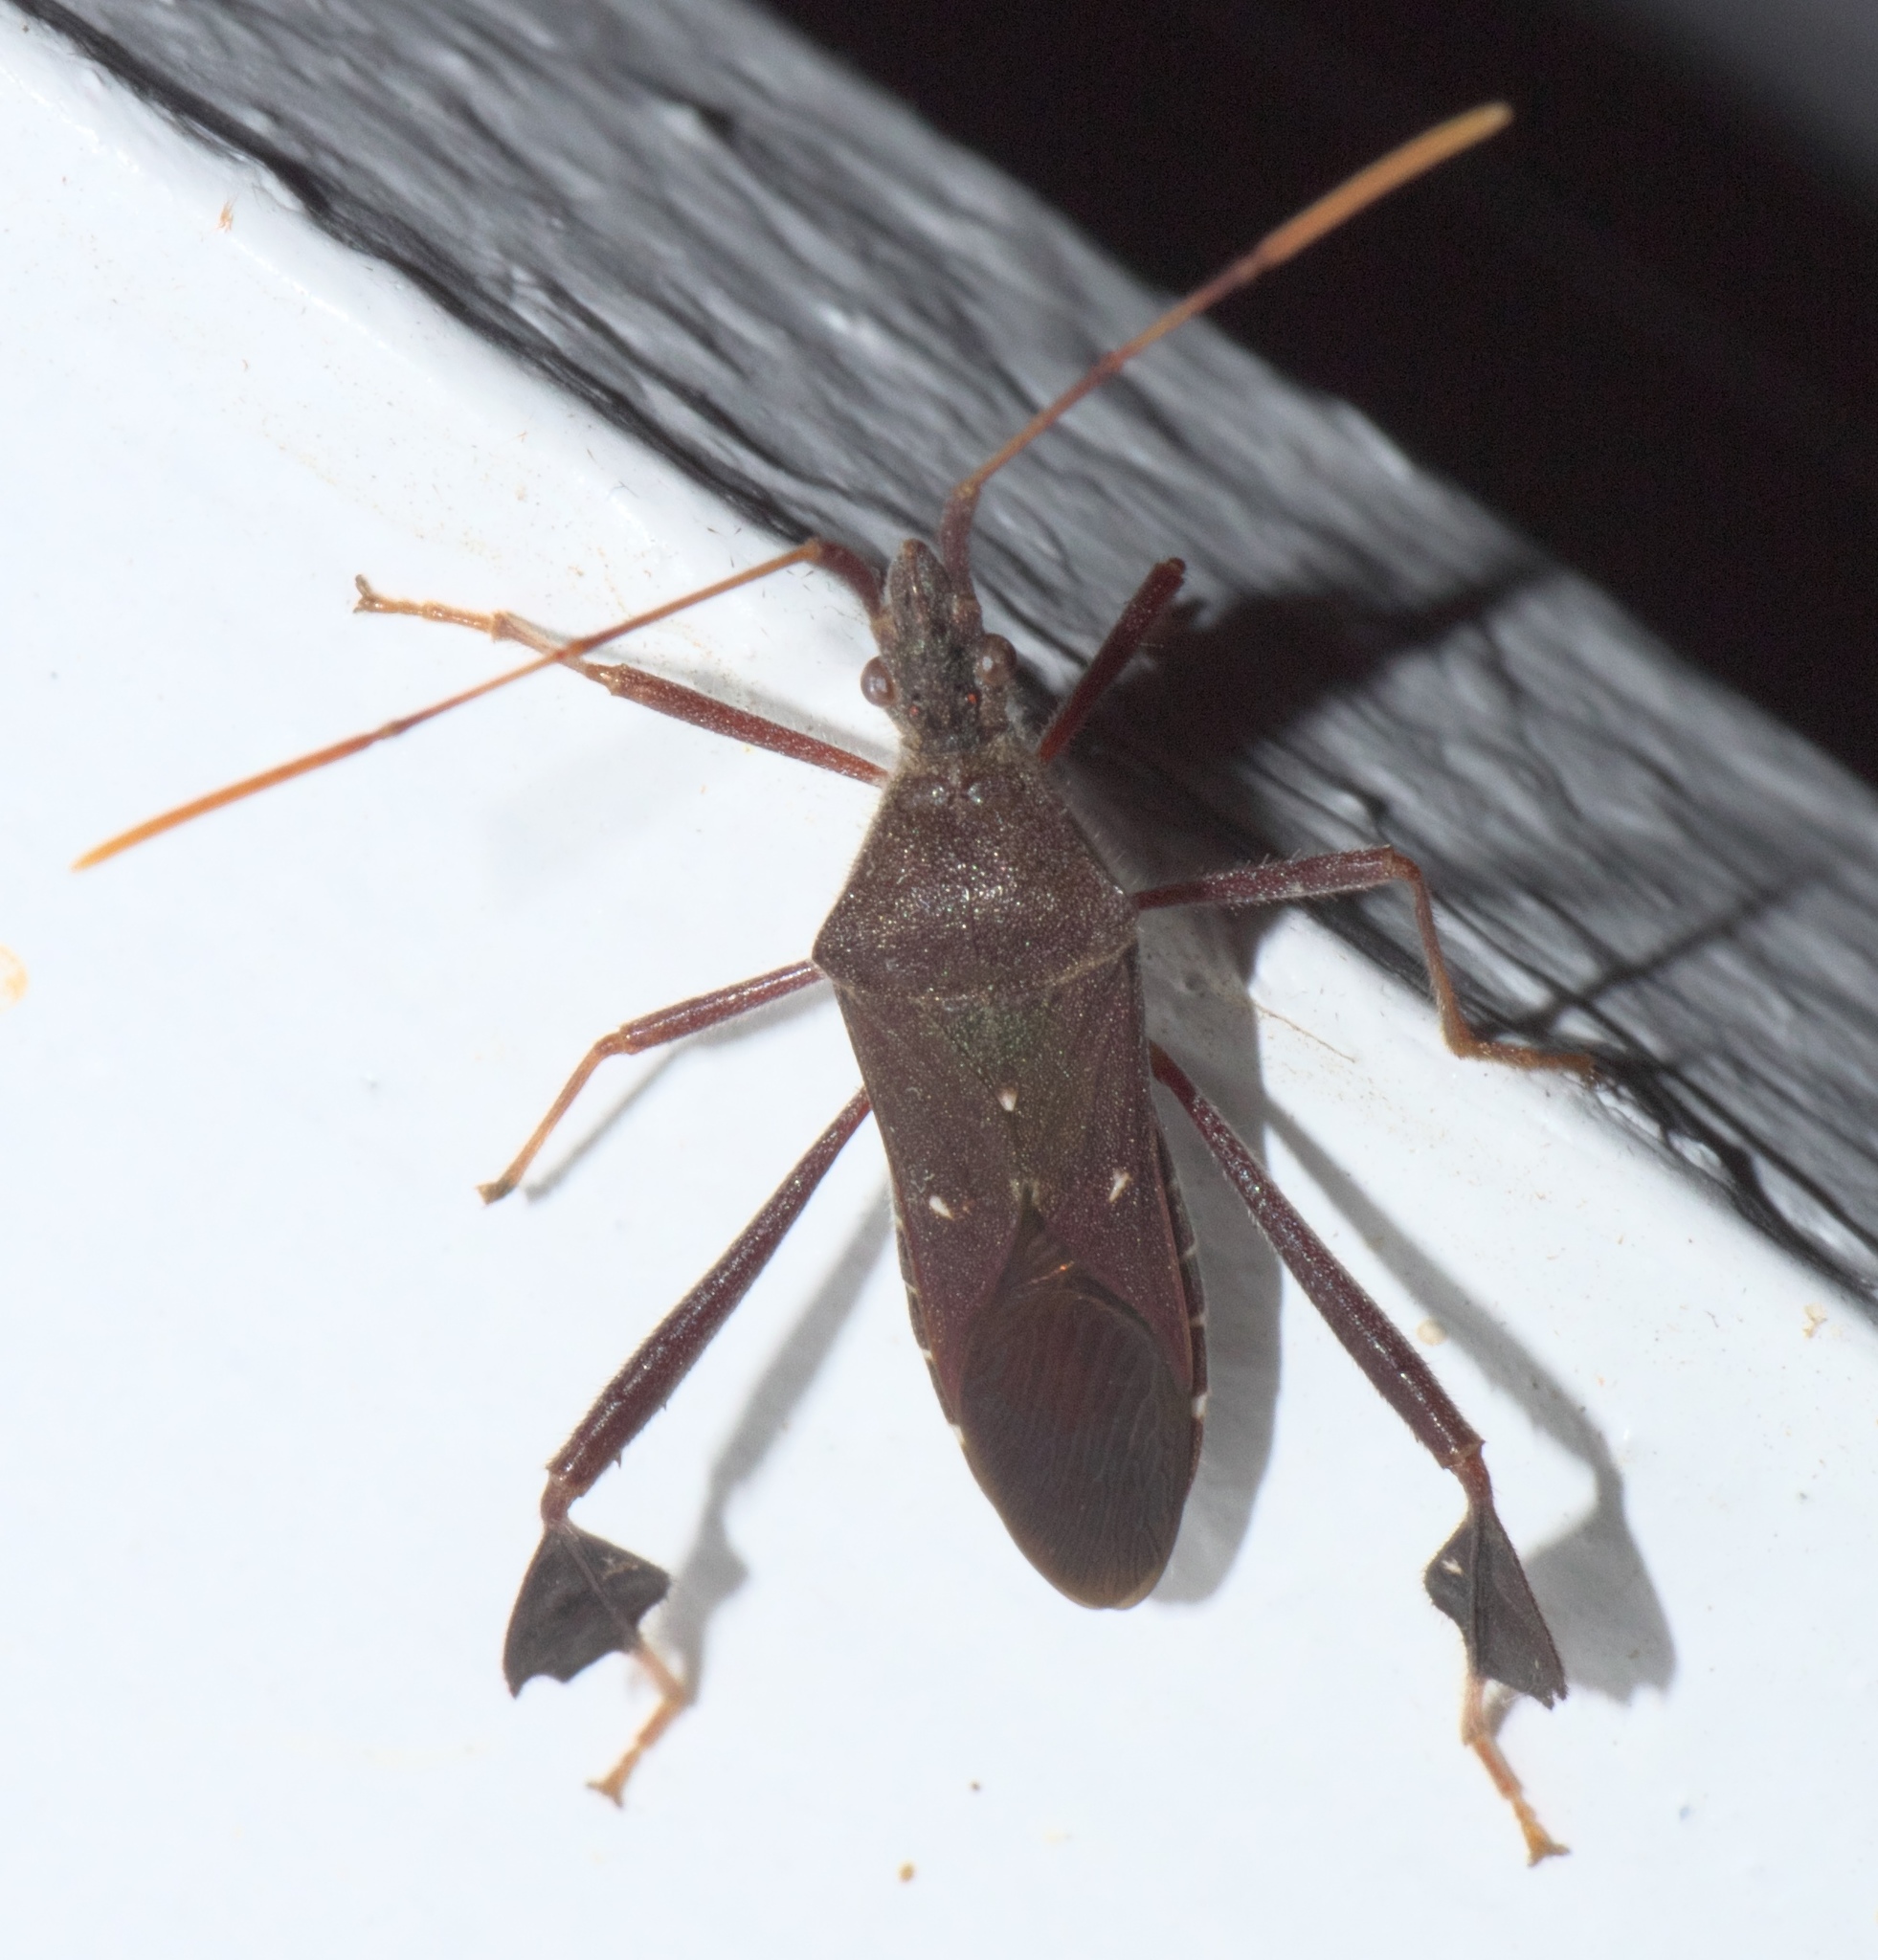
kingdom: Animalia
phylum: Arthropoda
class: Insecta
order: Hemiptera
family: Coreidae
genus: Leptoglossus
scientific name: Leptoglossus oppositus
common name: Northern leaf-footed bug
